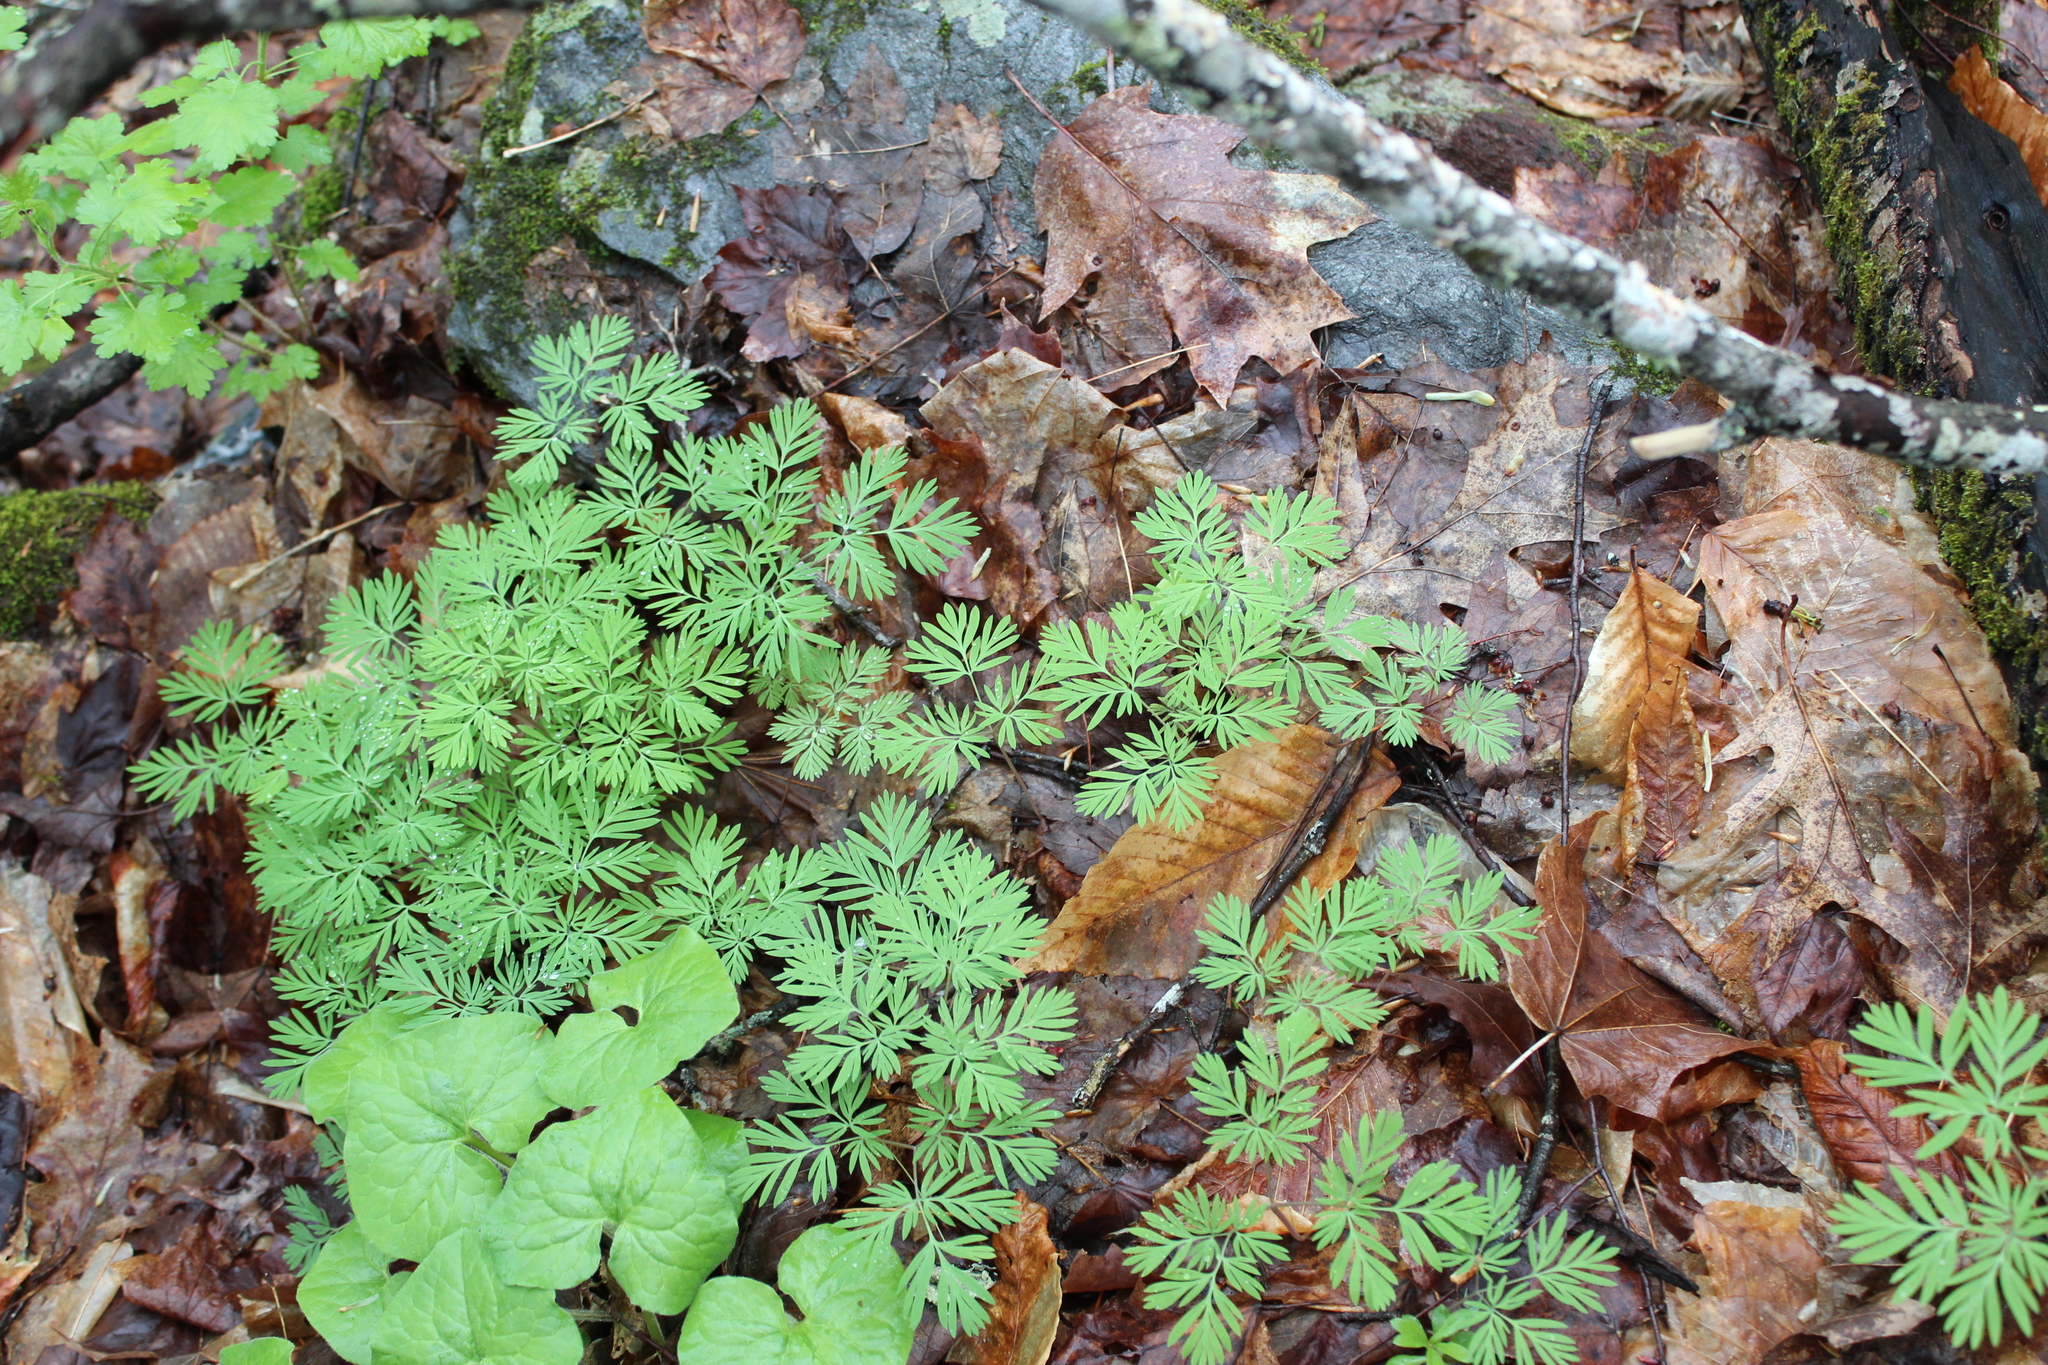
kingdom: Plantae
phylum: Tracheophyta
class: Magnoliopsida
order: Ranunculales
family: Papaveraceae
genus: Dicentra
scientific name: Dicentra canadensis
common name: Squirrel-corn
